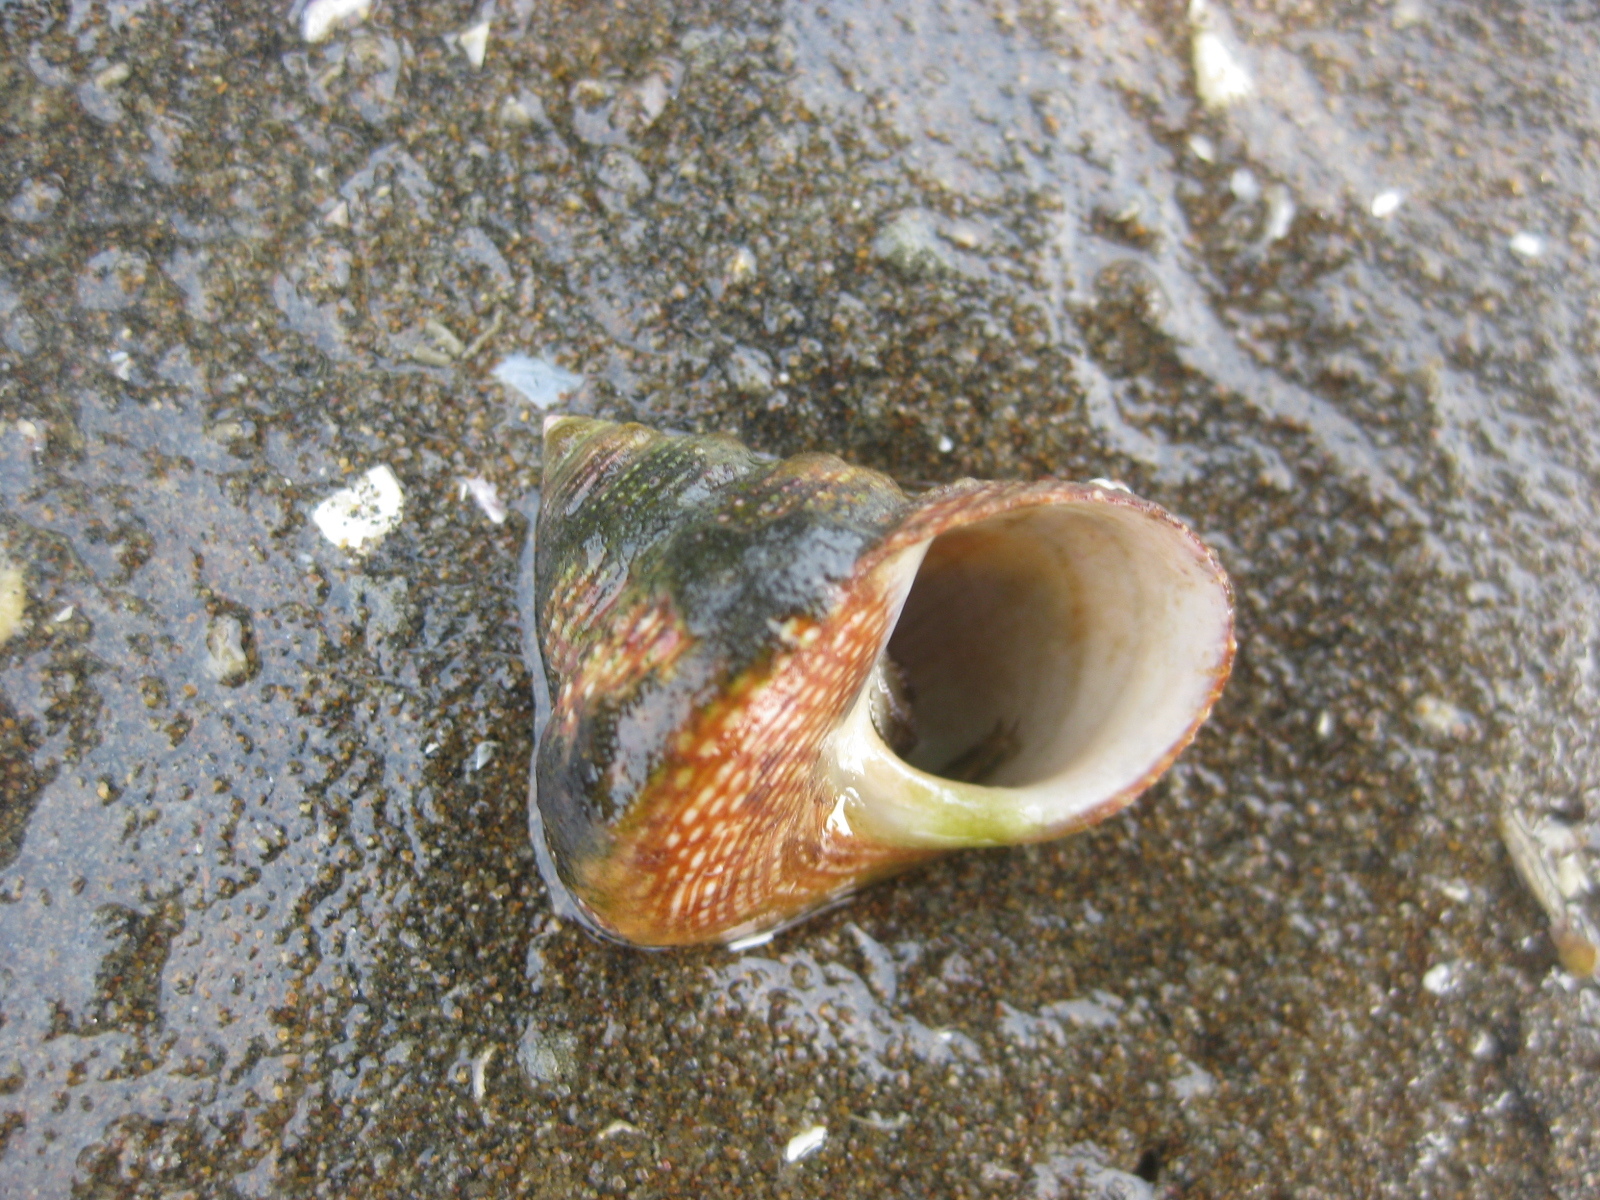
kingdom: Animalia
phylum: Mollusca
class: Gastropoda
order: Trochida
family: Calliostomatidae
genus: Maurea
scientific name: Maurea punctulata
